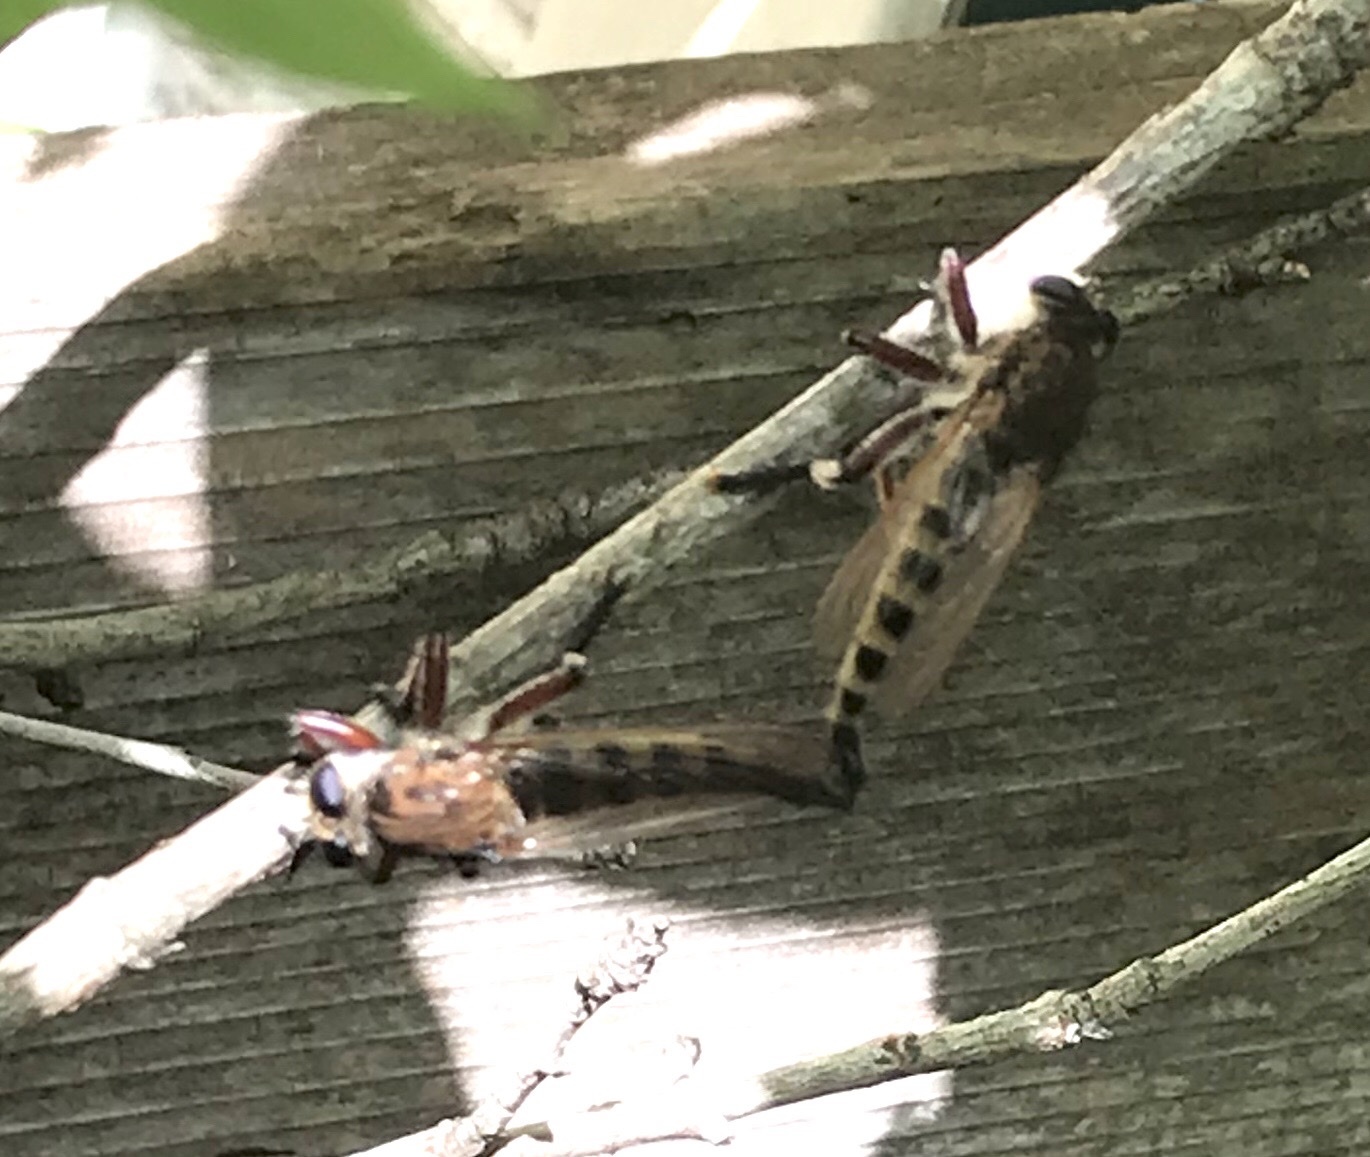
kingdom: Animalia
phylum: Arthropoda
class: Insecta
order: Diptera
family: Asilidae
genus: Promachus
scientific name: Promachus hinei
